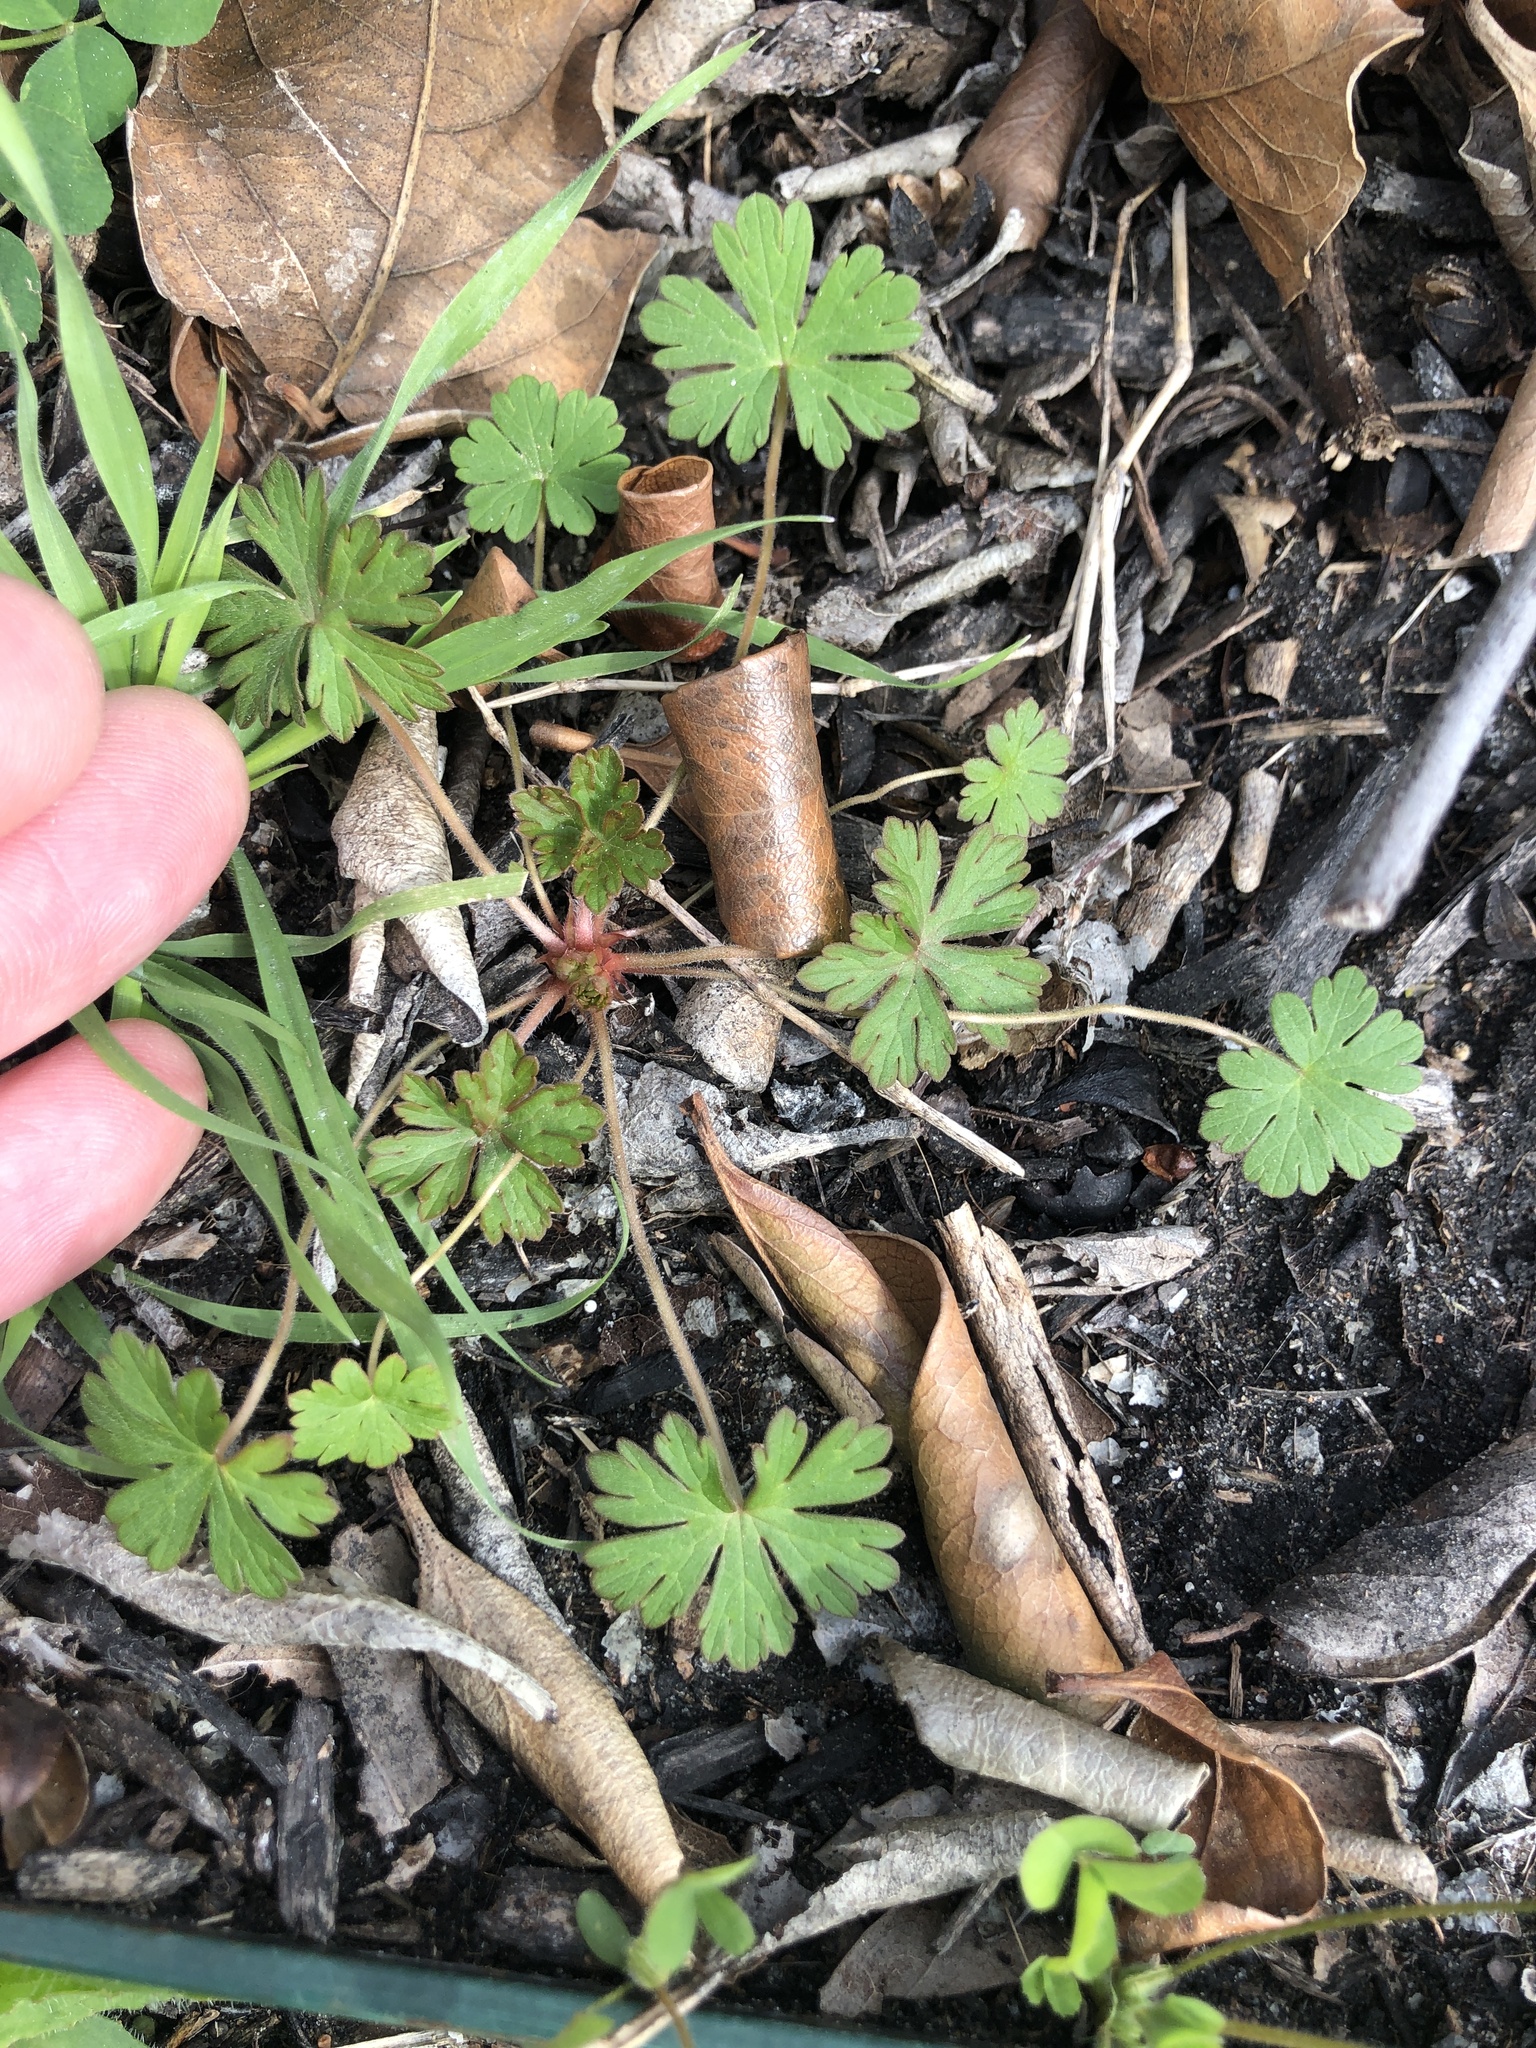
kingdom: Plantae
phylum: Tracheophyta
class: Magnoliopsida
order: Geraniales
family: Geraniaceae
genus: Geranium
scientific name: Geranium carolinianum
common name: Carolina crane's-bill
